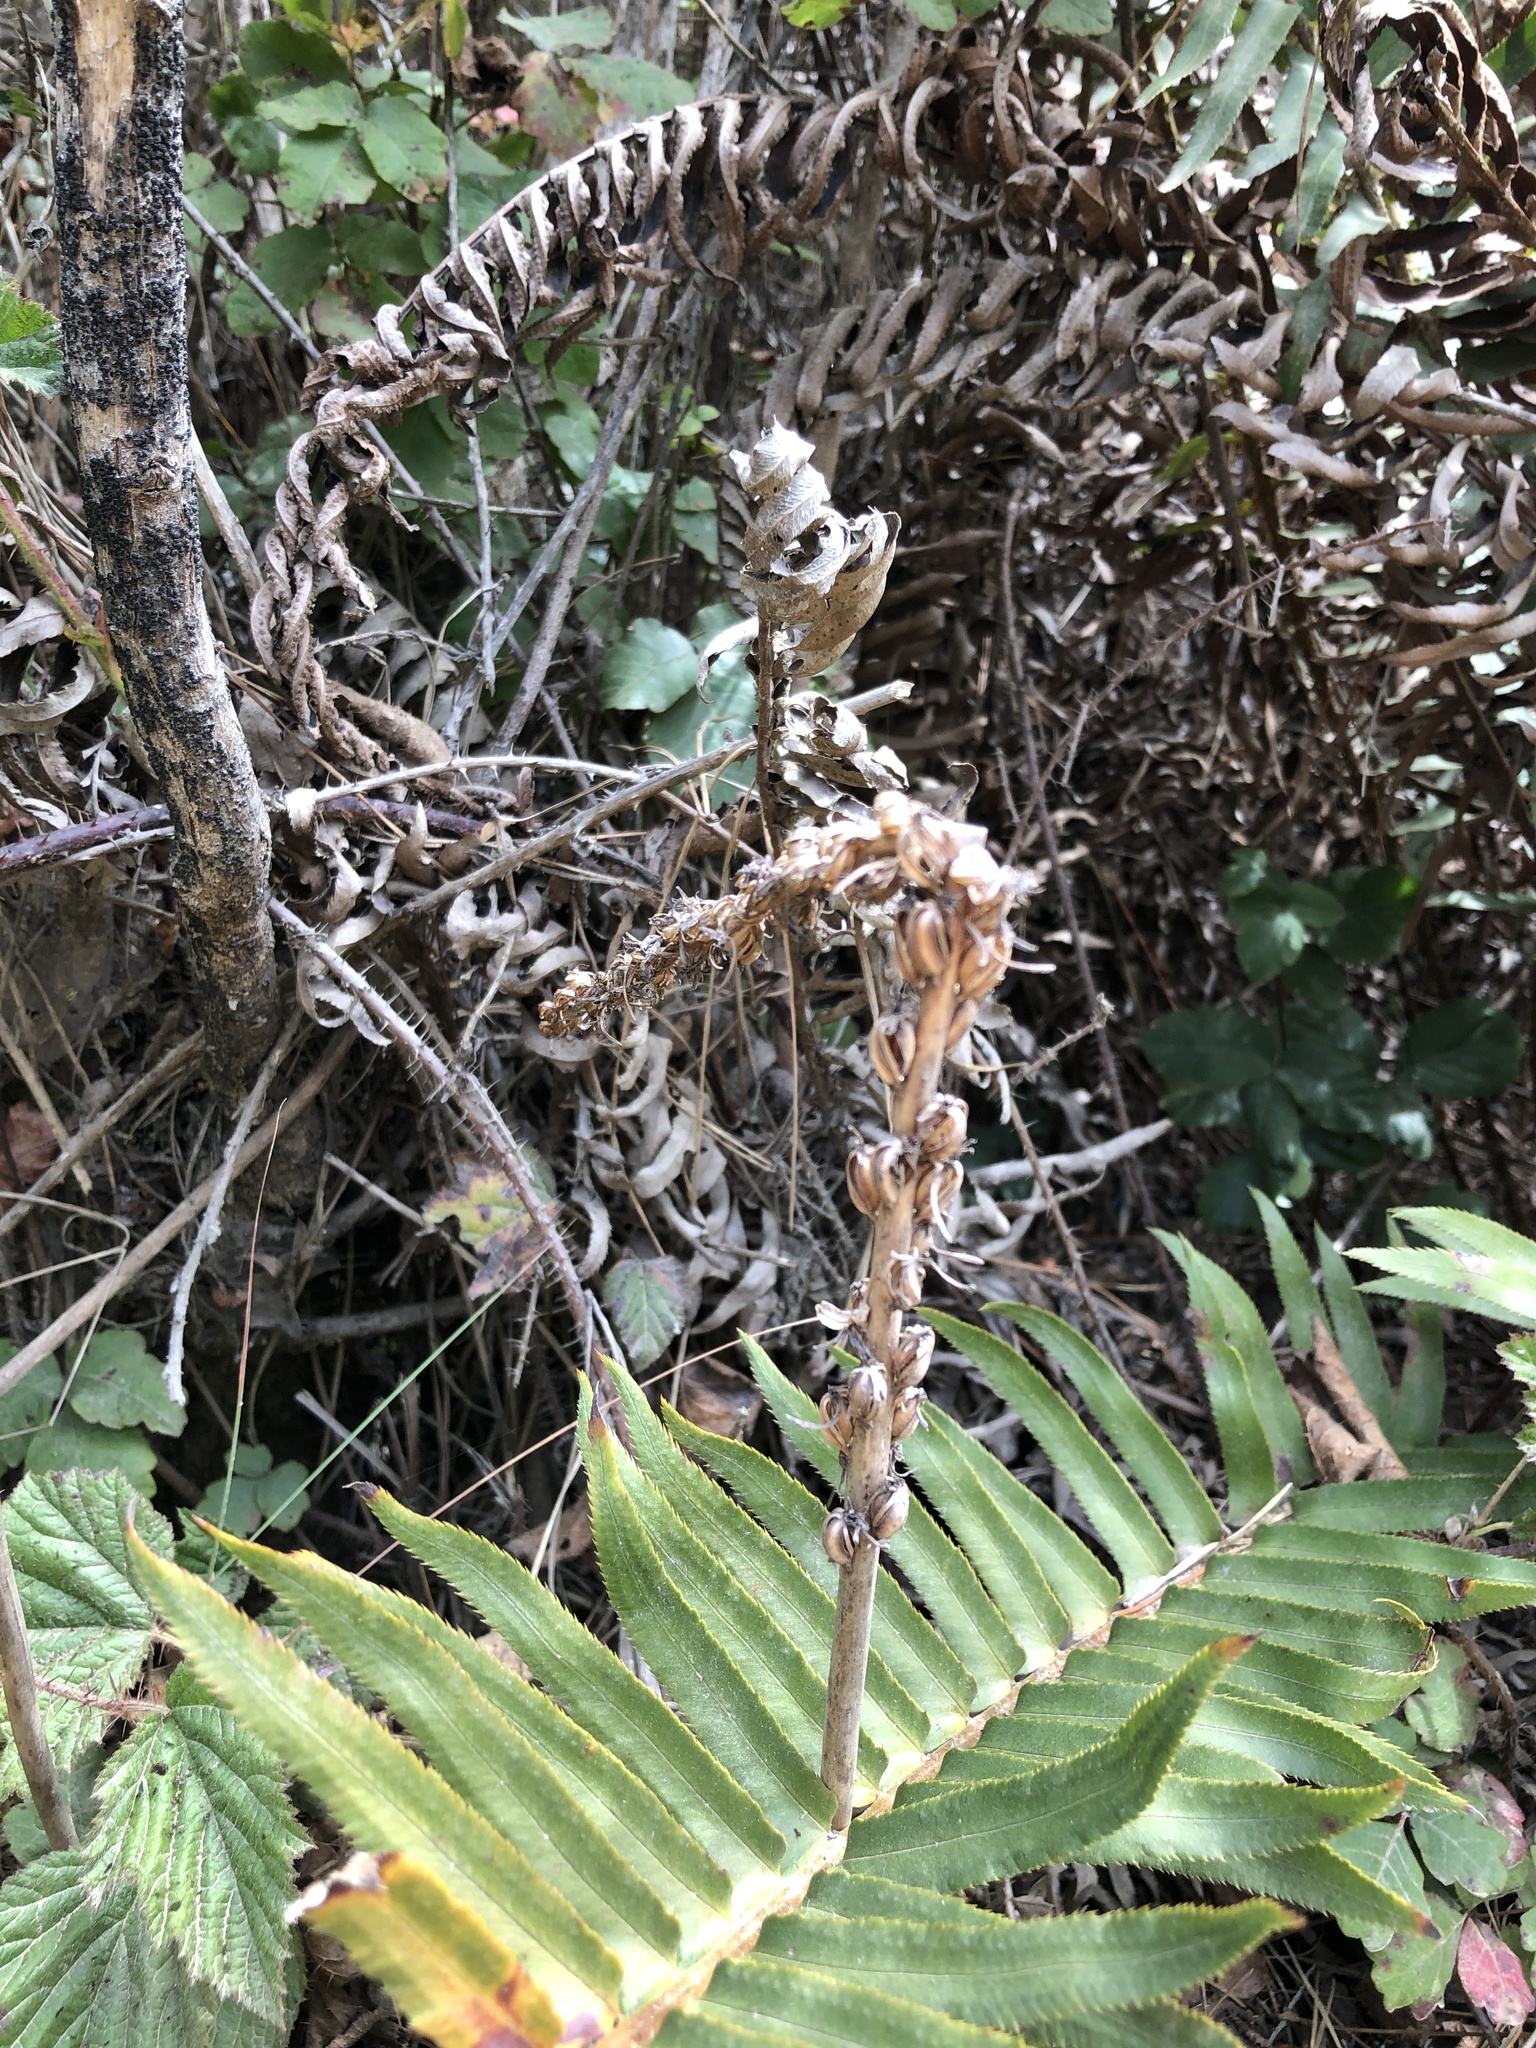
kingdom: Plantae
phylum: Tracheophyta
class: Liliopsida
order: Asparagales
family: Orchidaceae
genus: Platanthera
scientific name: Platanthera elongata
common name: Dense-flowered rein orchid
